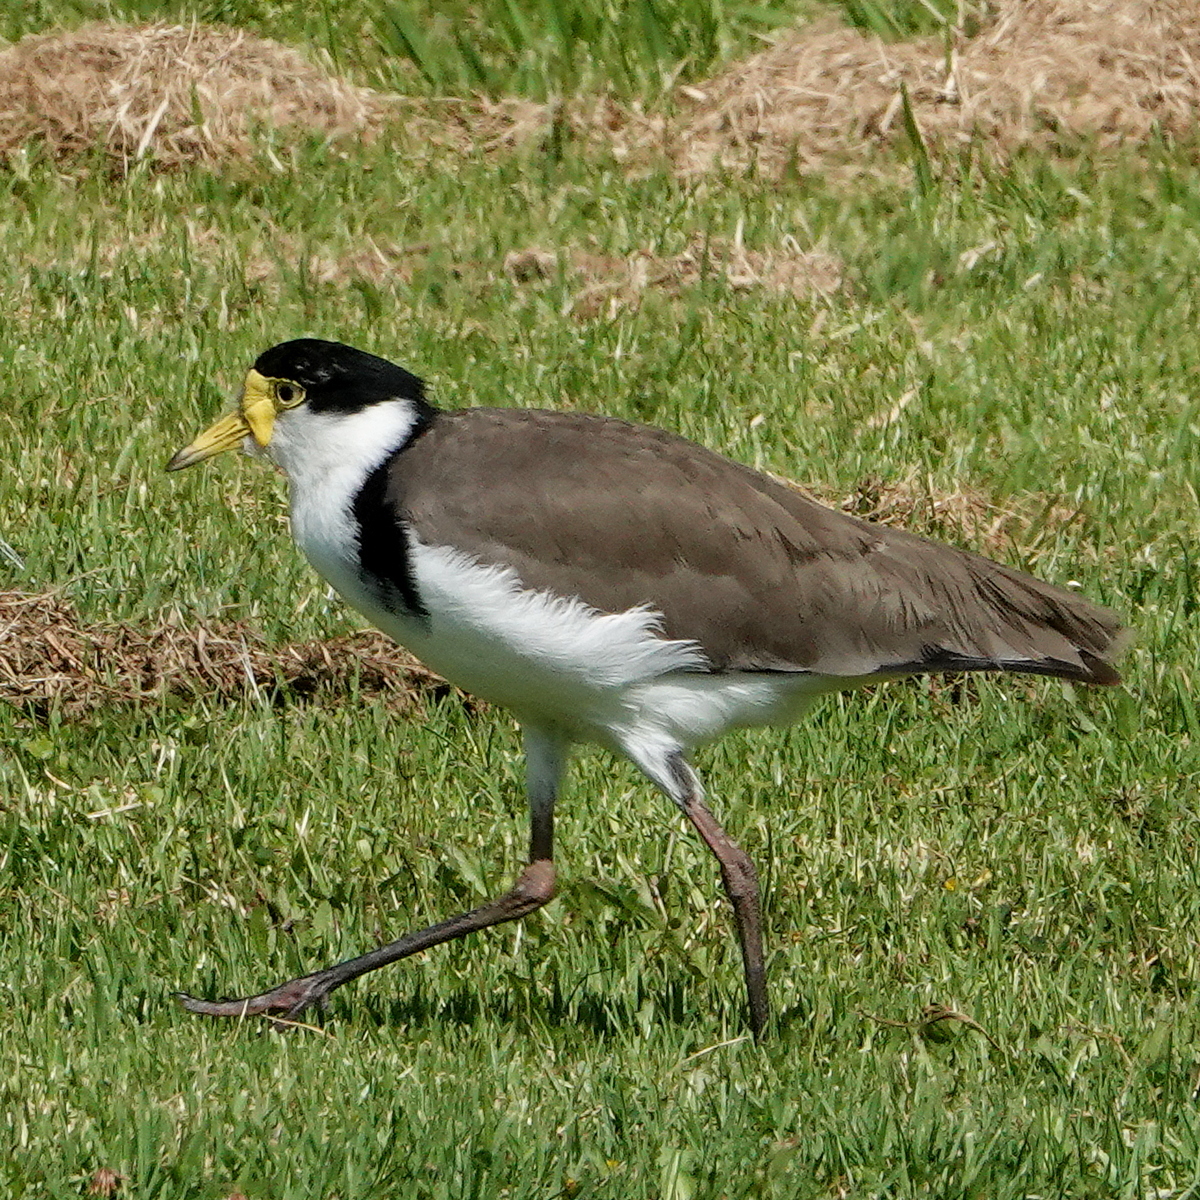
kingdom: Animalia
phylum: Chordata
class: Aves
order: Charadriiformes
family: Charadriidae
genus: Vanellus
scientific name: Vanellus miles
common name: Masked lapwing
